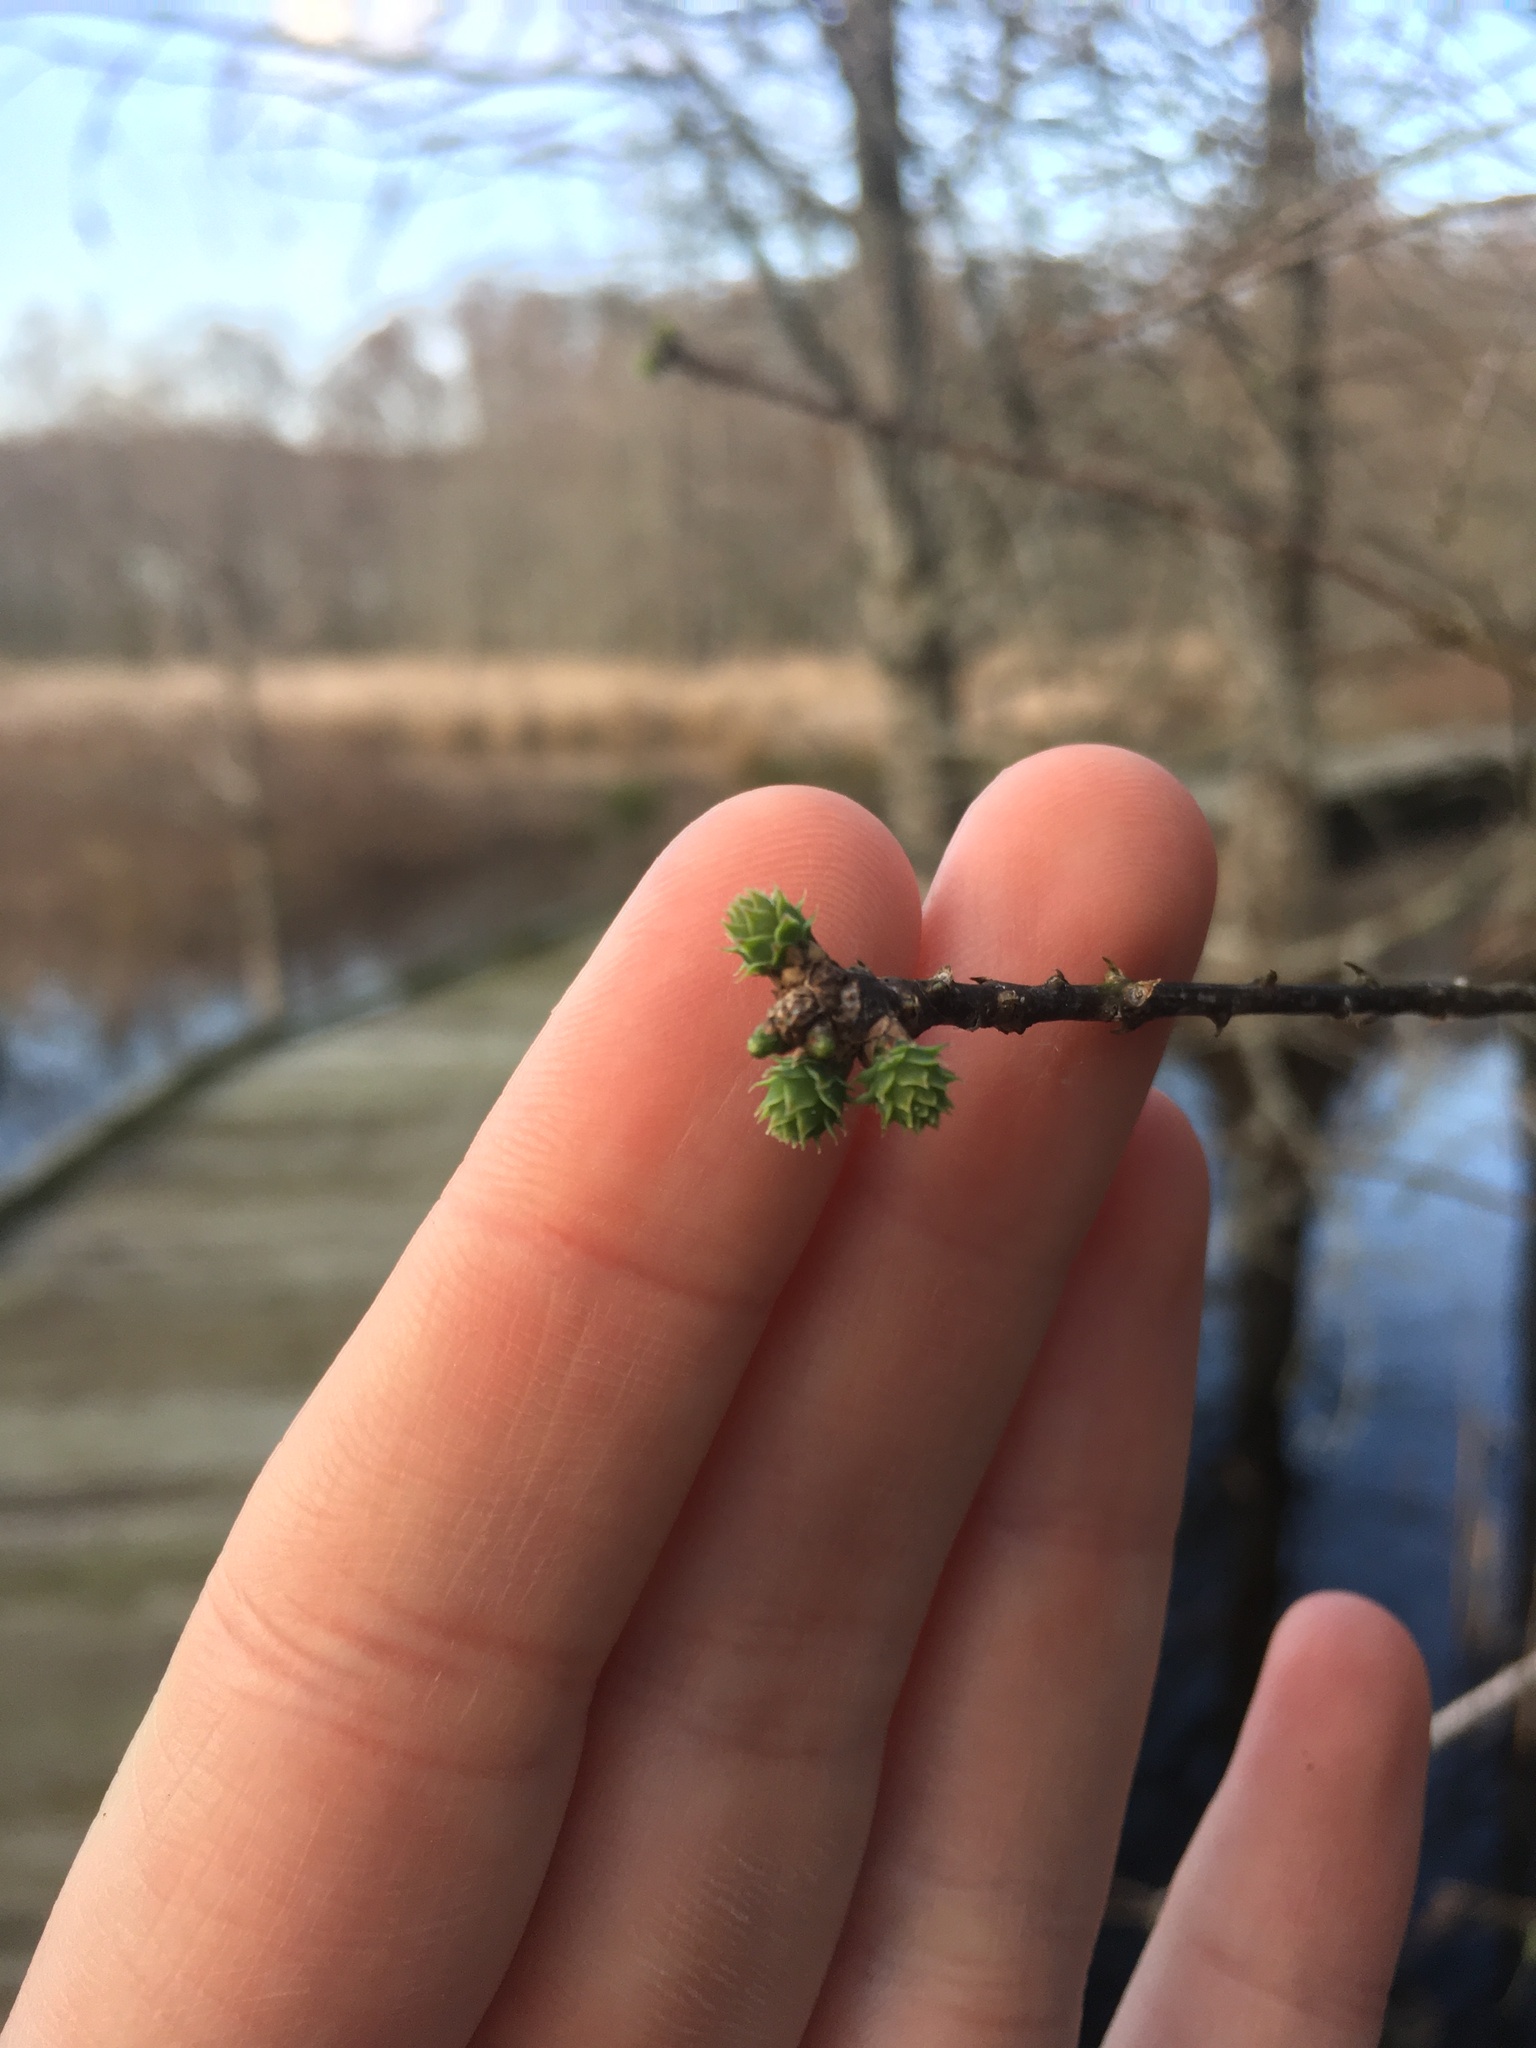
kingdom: Plantae
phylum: Tracheophyta
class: Pinopsida
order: Pinales
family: Cupressaceae
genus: Taxodium
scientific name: Taxodium distichum
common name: Bald cypress
